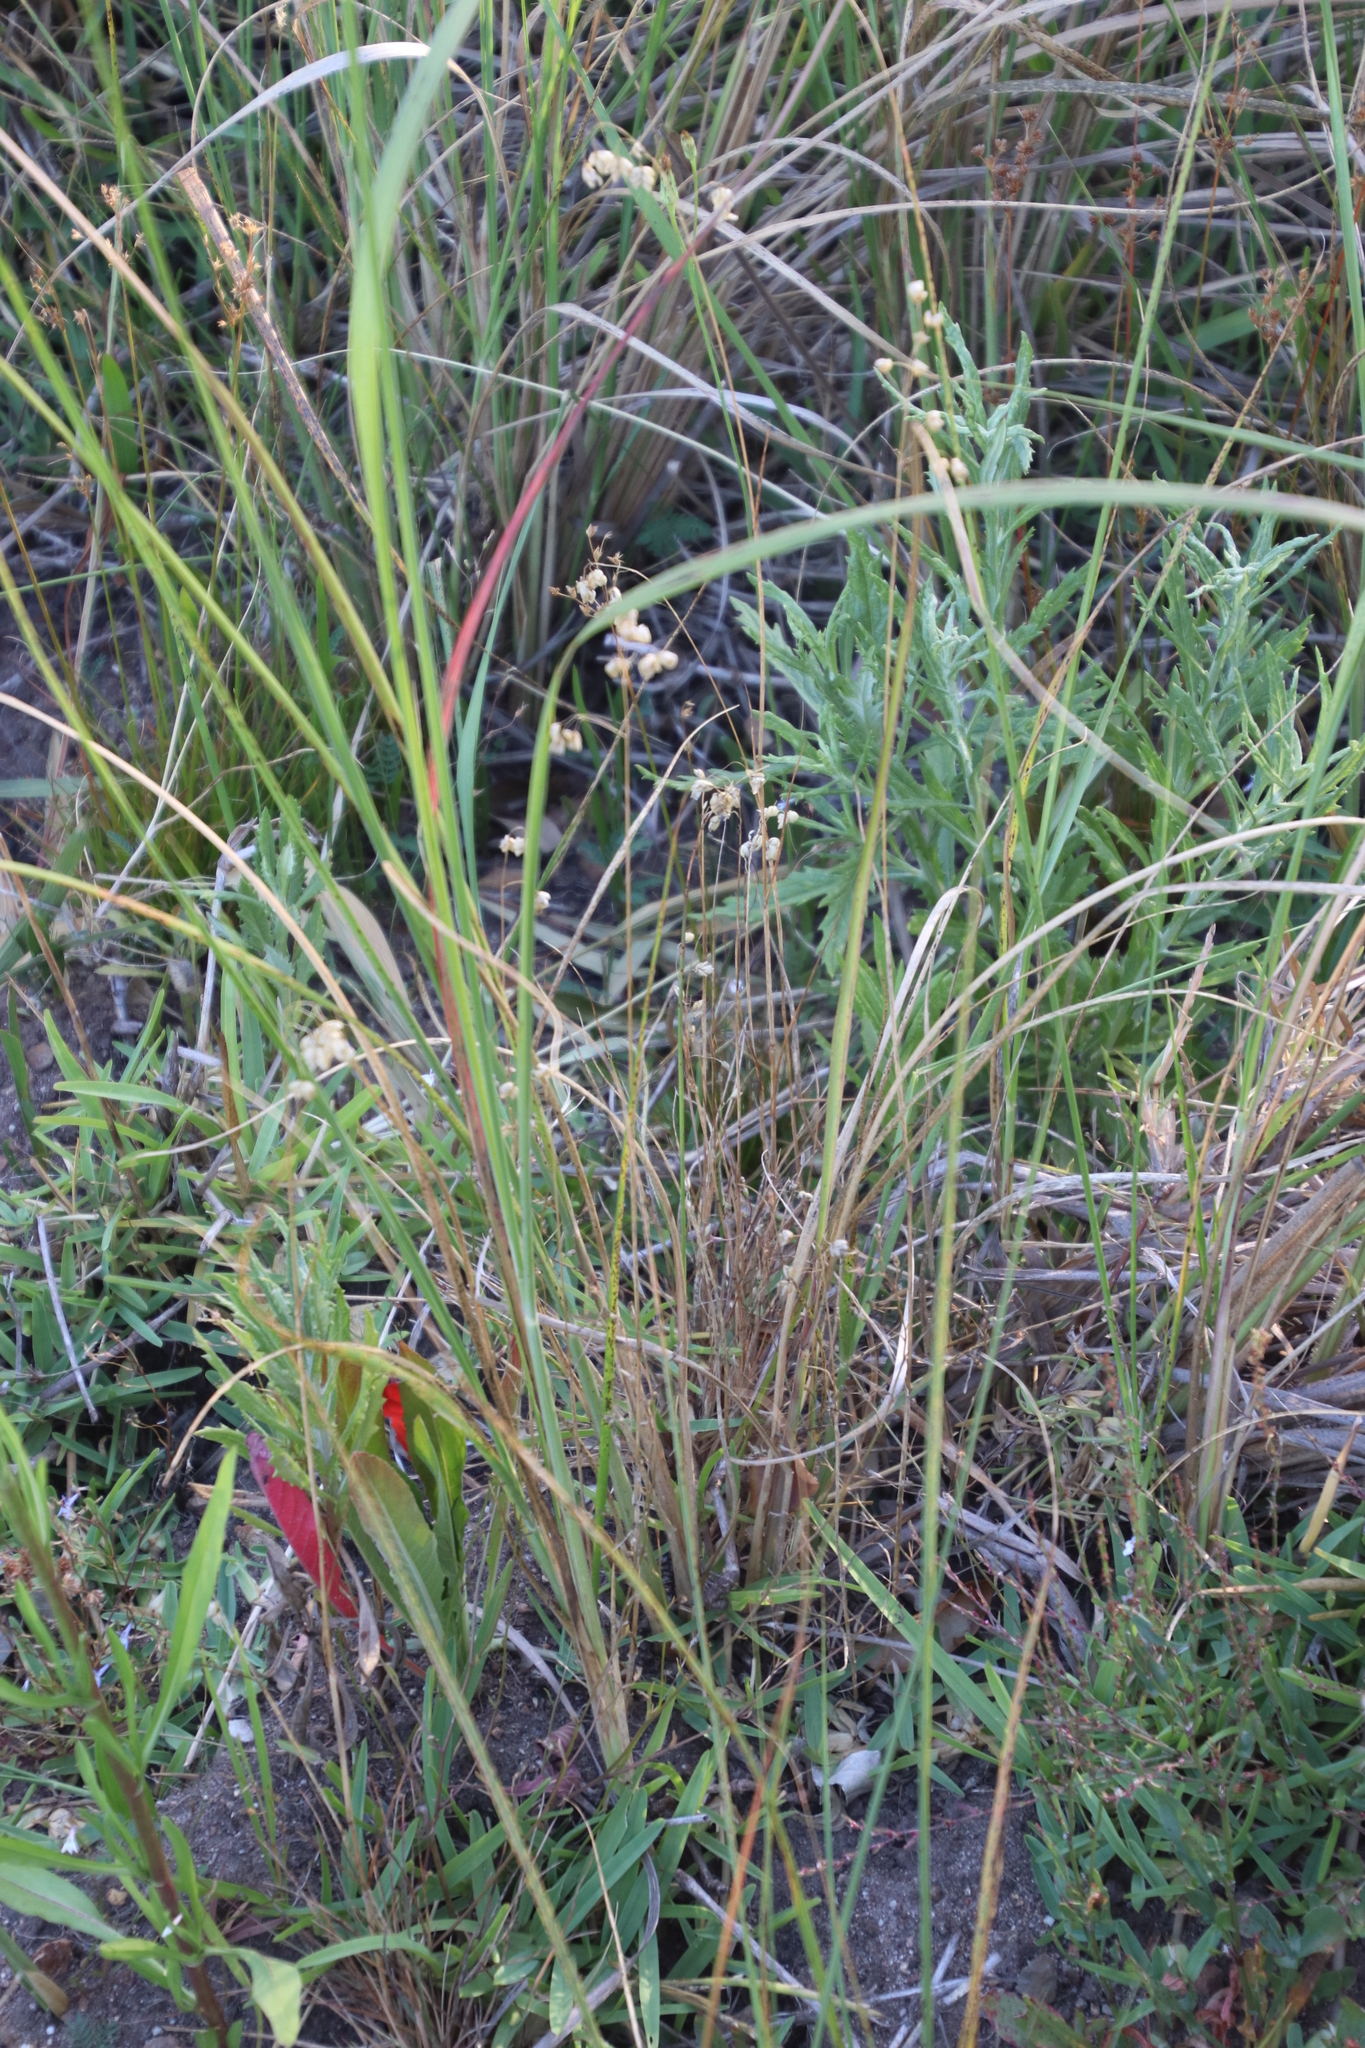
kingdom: Plantae
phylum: Tracheophyta
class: Liliopsida
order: Poales
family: Poaceae
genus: Briza
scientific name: Briza maxima
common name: Big quakinggrass
